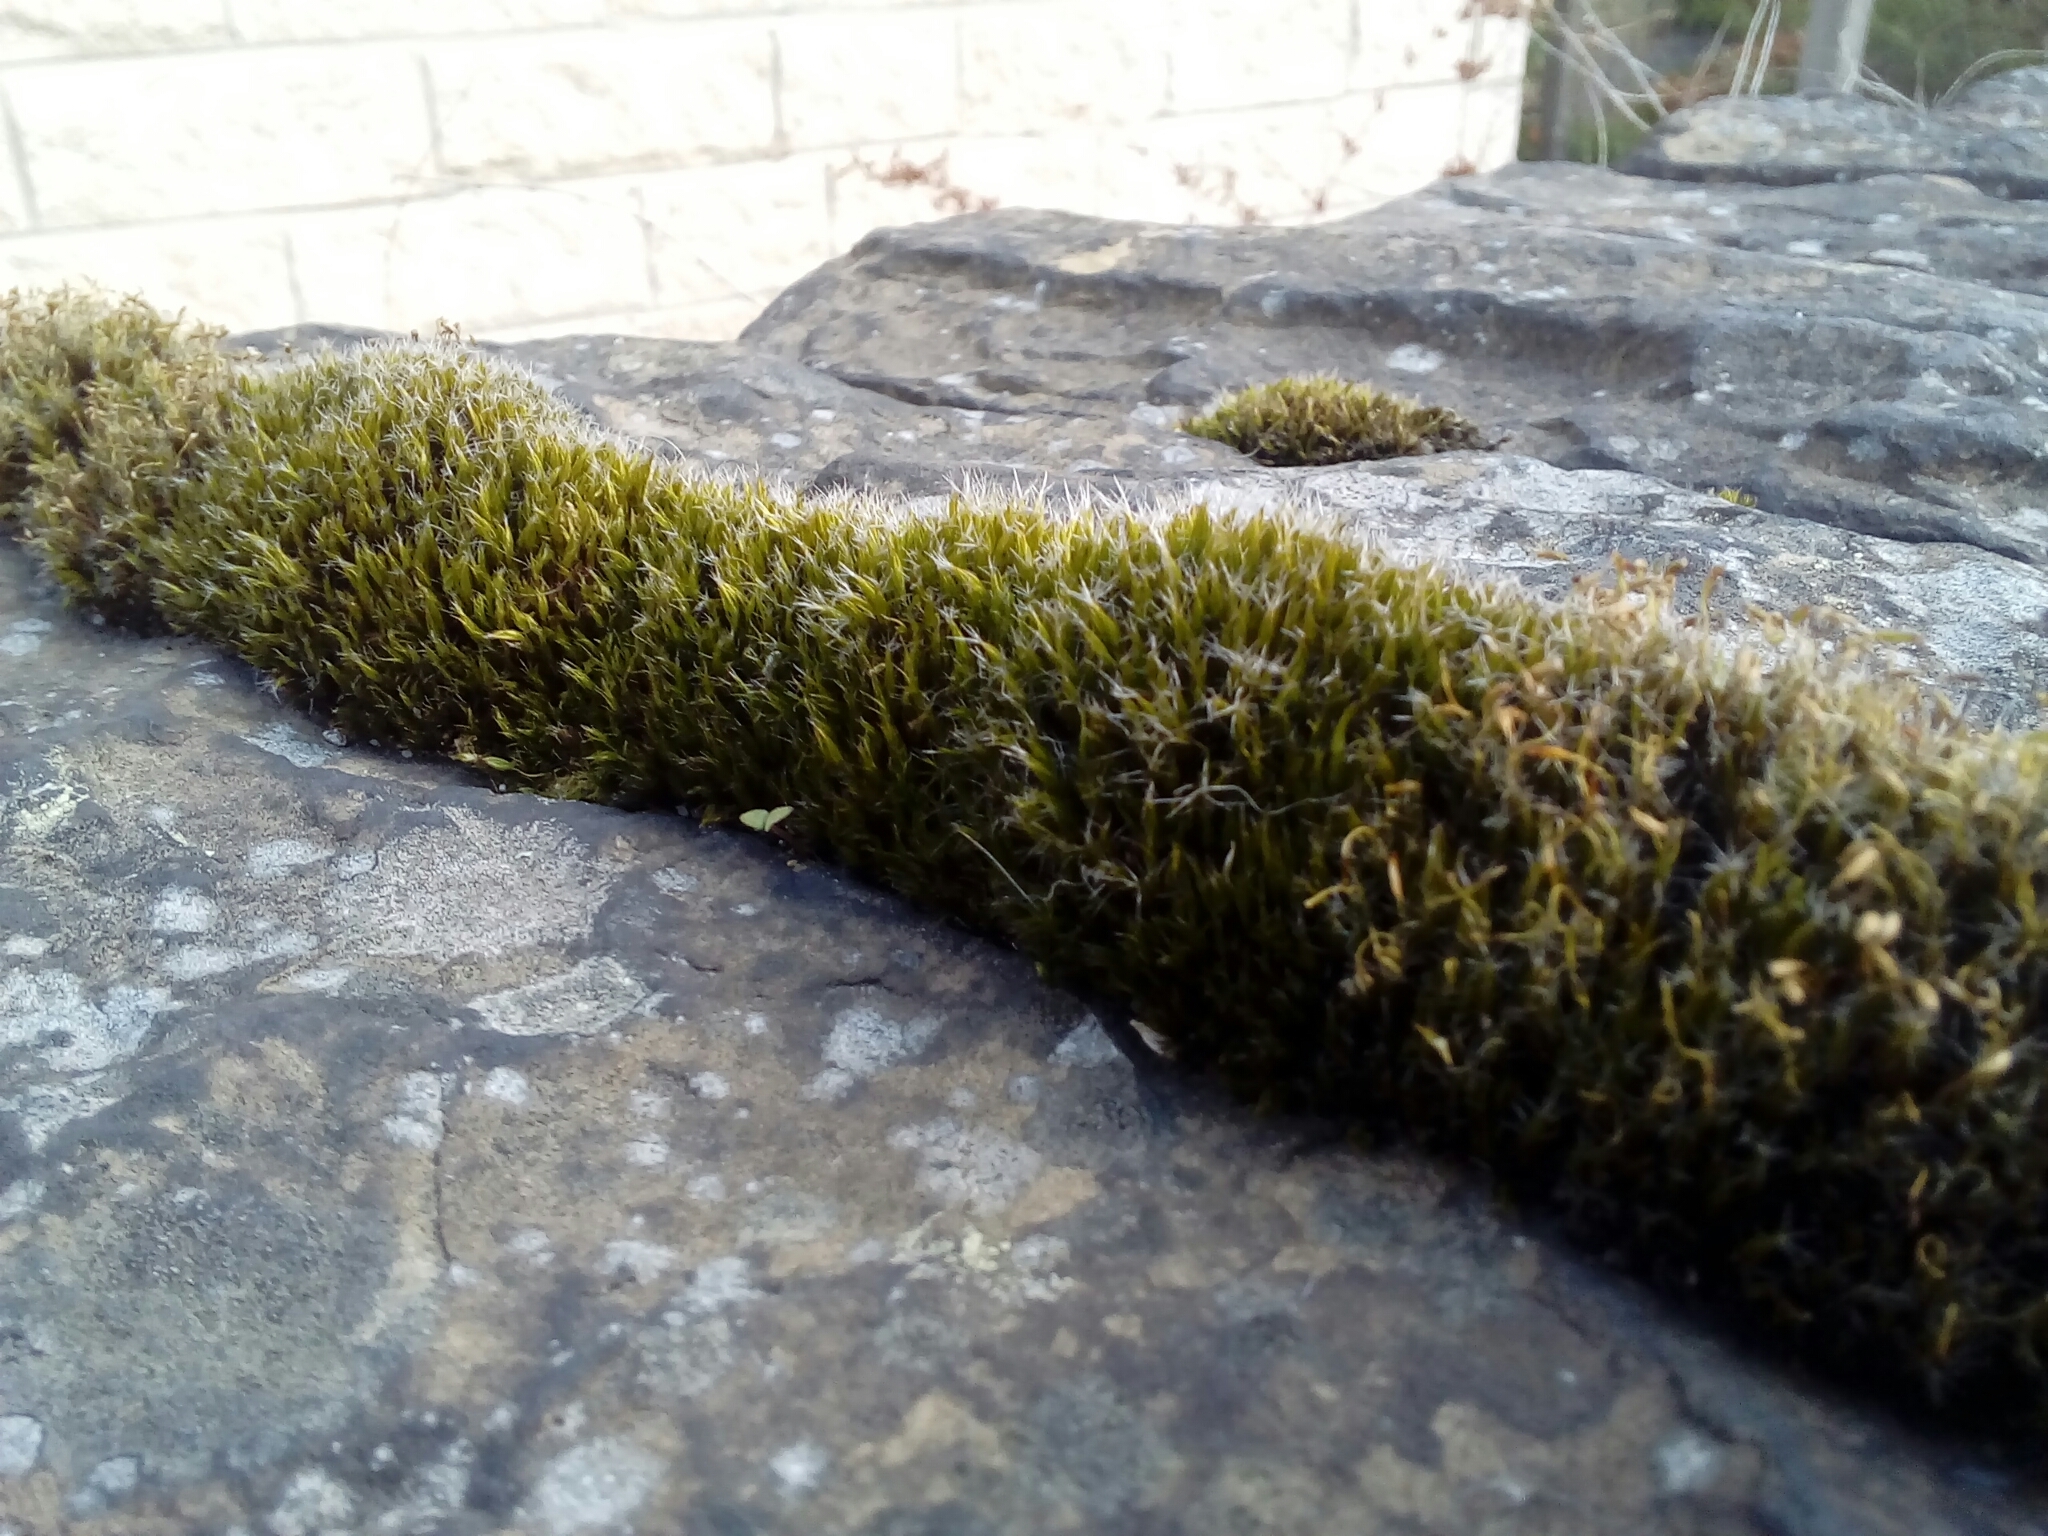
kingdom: Plantae
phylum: Bryophyta
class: Bryopsida
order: Dicranales
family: Leucobryaceae
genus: Campylopus
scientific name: Campylopus introflexus
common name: Heath star moss
